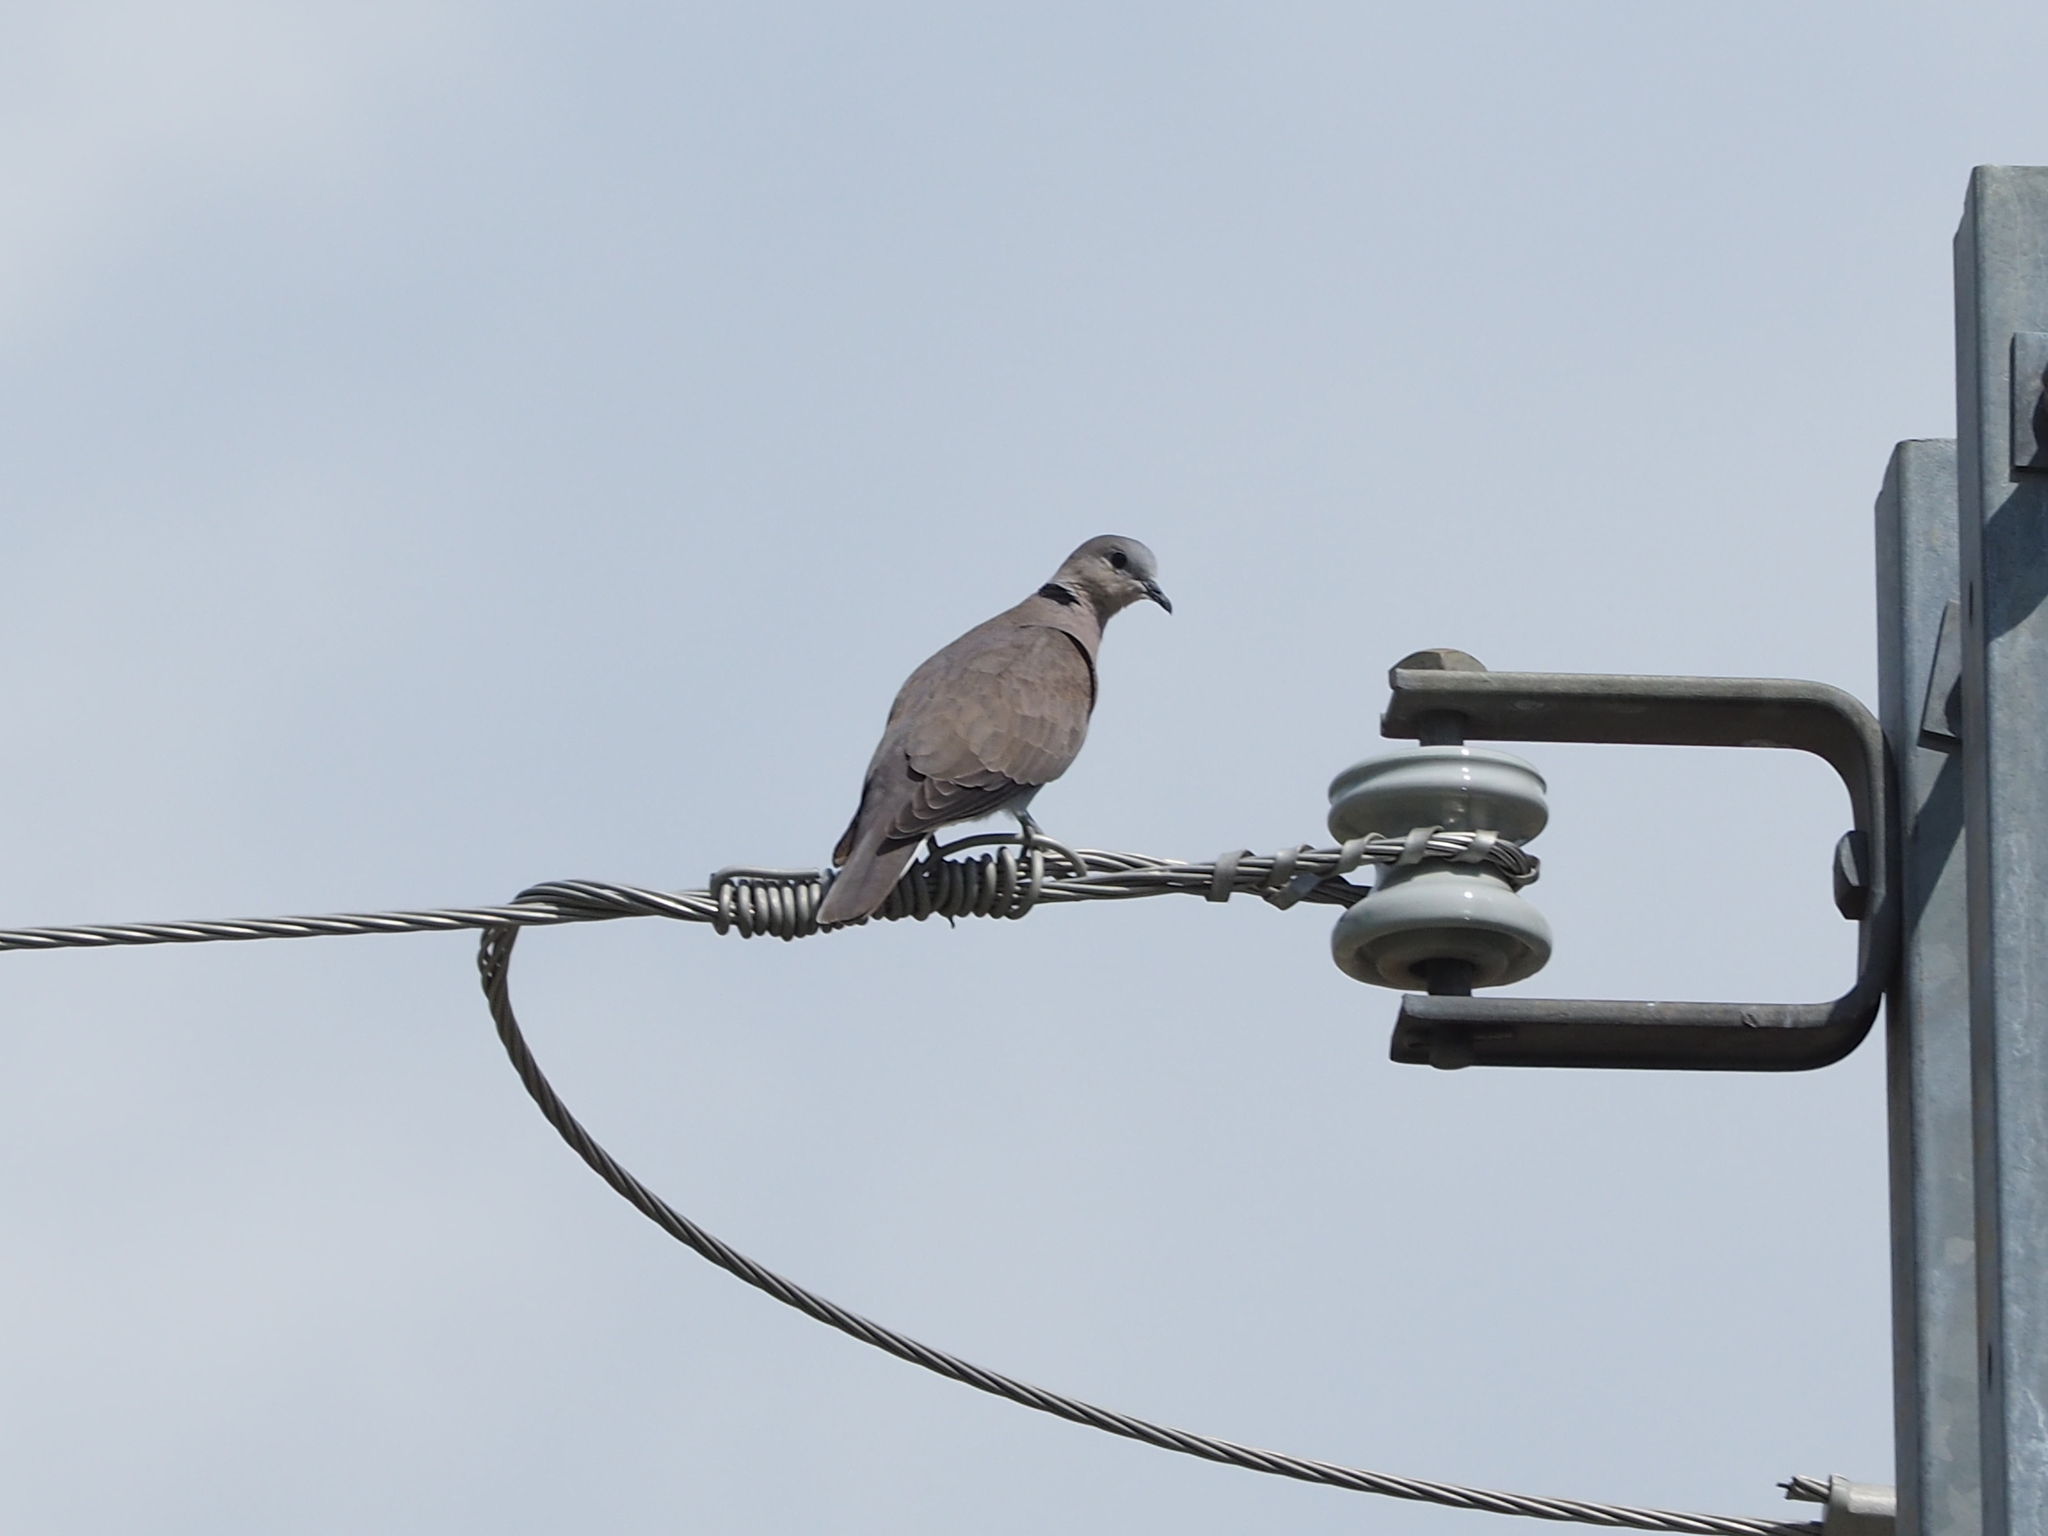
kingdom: Animalia
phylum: Chordata
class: Aves
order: Columbiformes
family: Columbidae
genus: Streptopelia
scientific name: Streptopelia tranquebarica
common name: Red turtle dove
